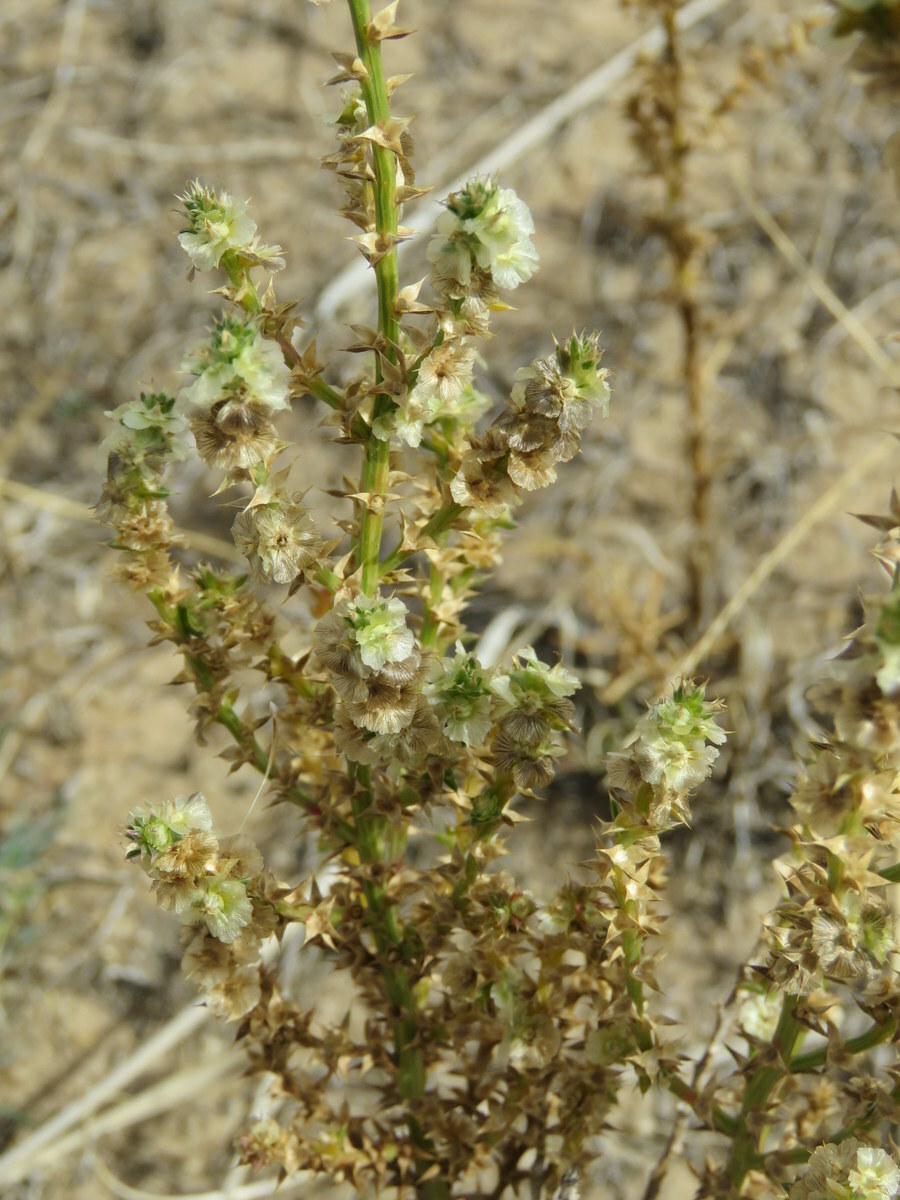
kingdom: Plantae
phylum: Tracheophyta
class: Magnoliopsida
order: Caryophyllales
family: Amaranthaceae
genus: Salsola
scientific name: Salsola australis
